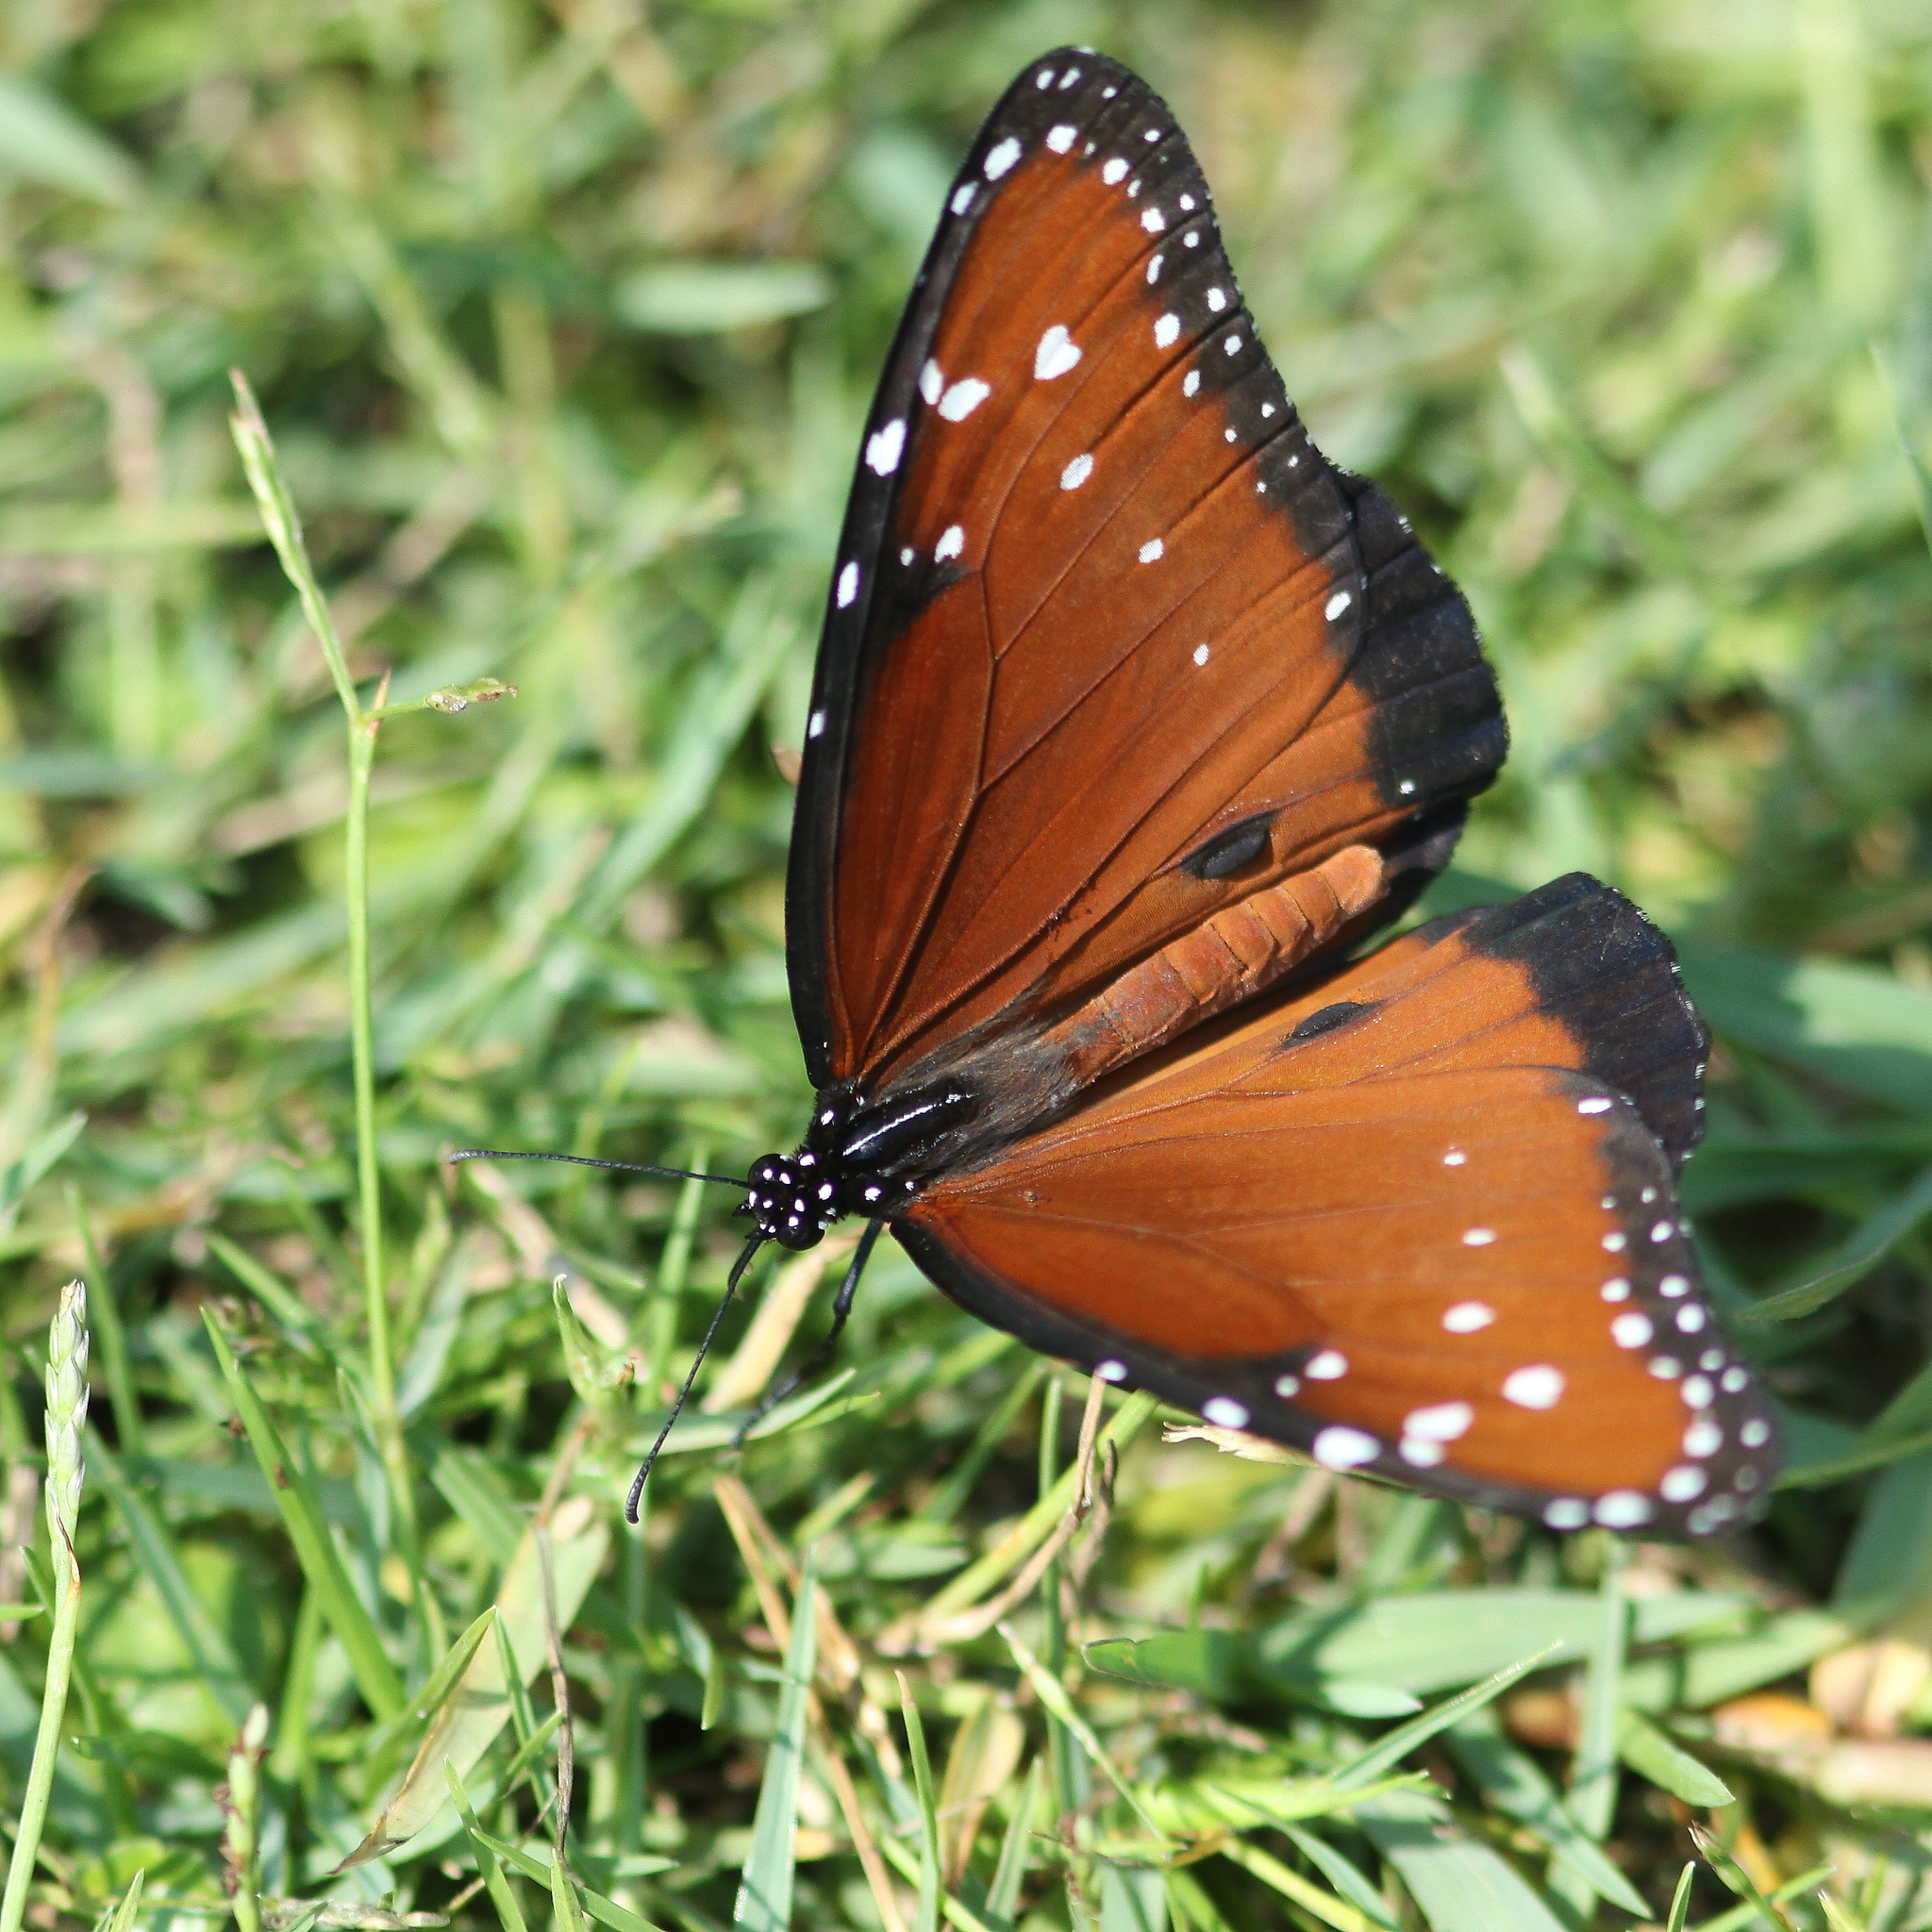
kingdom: Animalia
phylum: Arthropoda
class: Insecta
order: Lepidoptera
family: Nymphalidae
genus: Danaus
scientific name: Danaus gilippus
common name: Queen
